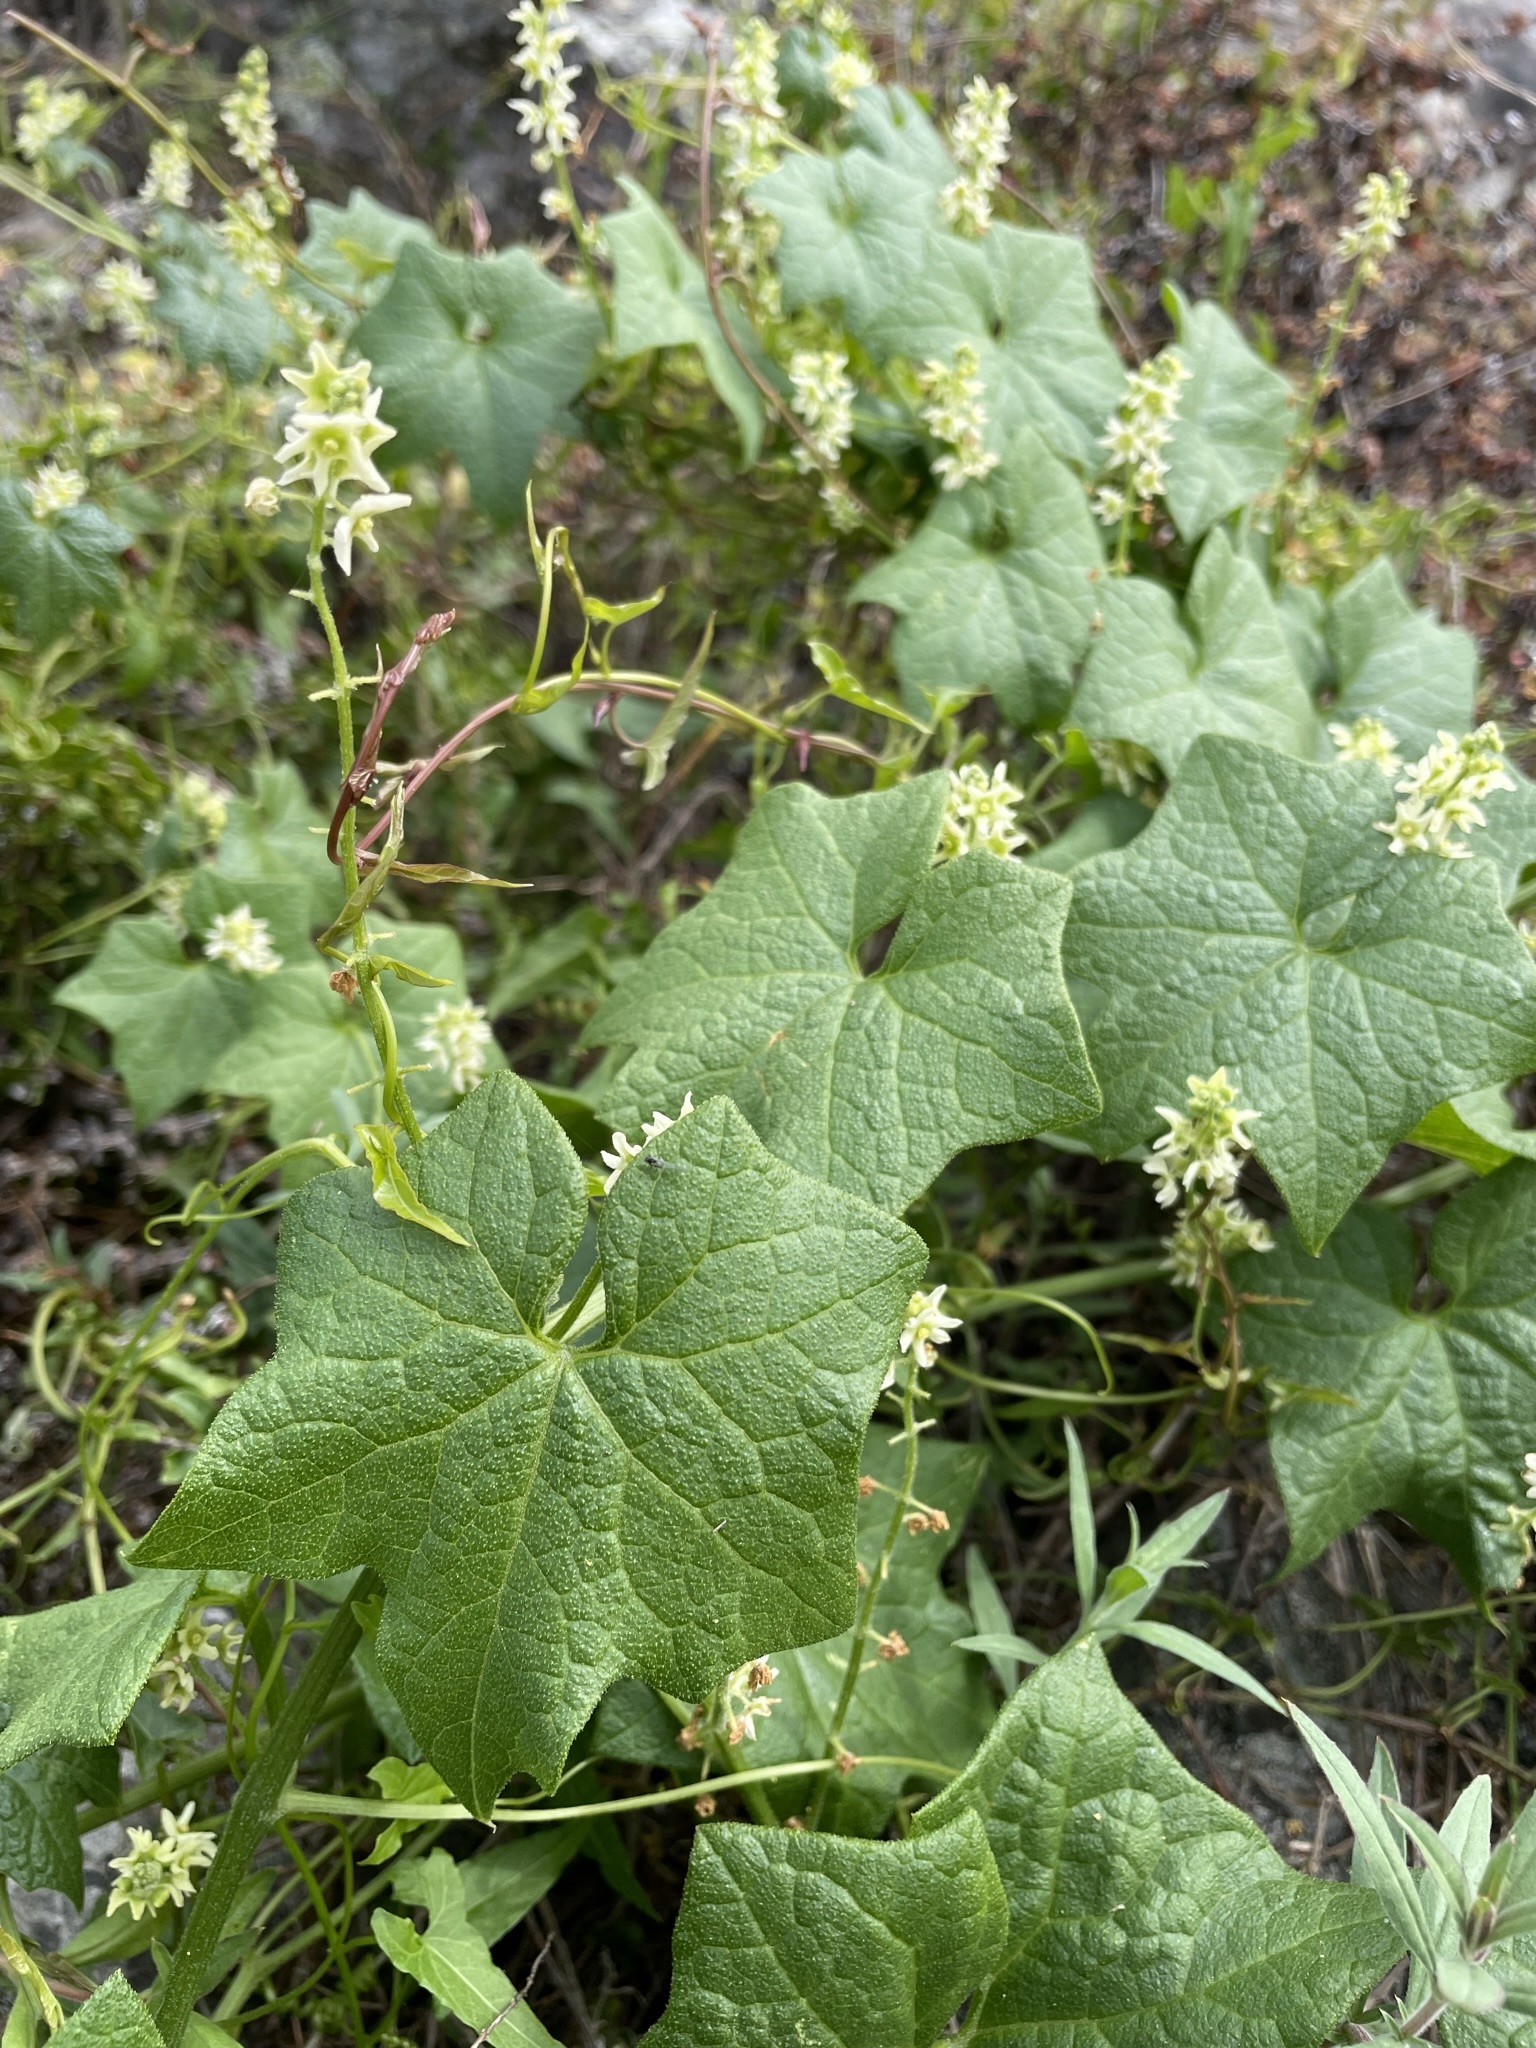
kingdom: Plantae
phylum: Tracheophyta
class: Magnoliopsida
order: Cucurbitales
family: Cucurbitaceae
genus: Marah
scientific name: Marah fabacea
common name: California manroot
